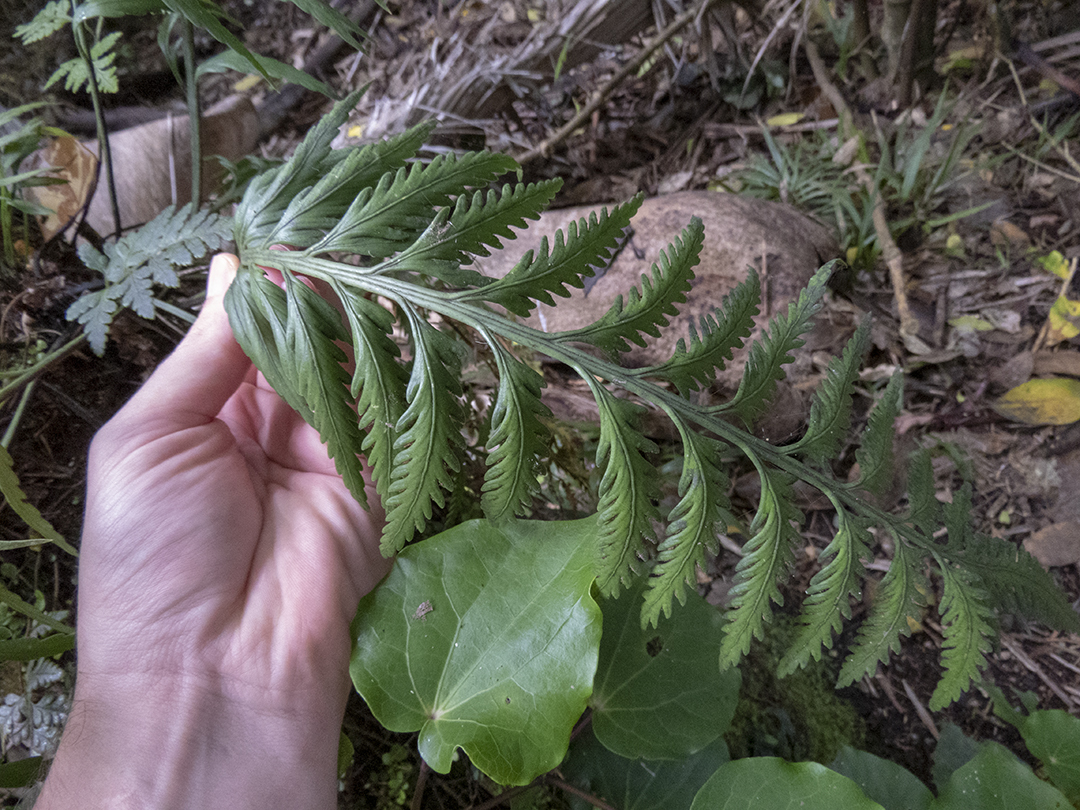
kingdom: Plantae
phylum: Tracheophyta
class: Polypodiopsida
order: Polypodiales
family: Aspleniaceae
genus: Asplenium
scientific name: Asplenium flaccidum
